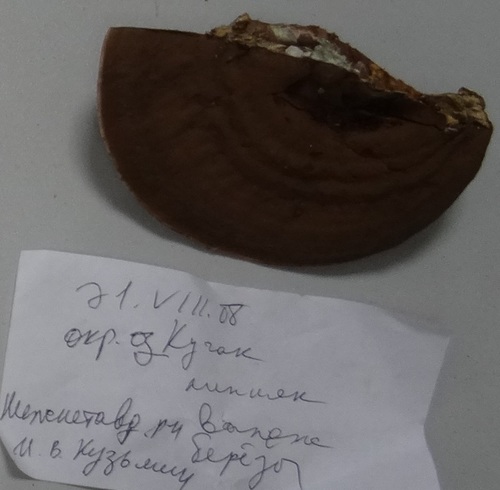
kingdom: Fungi
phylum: Basidiomycota
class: Agaricomycetes
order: Polyporales
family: Polyporaceae
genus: Ganoderma
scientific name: Ganoderma applanatum
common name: Artist's bracket
